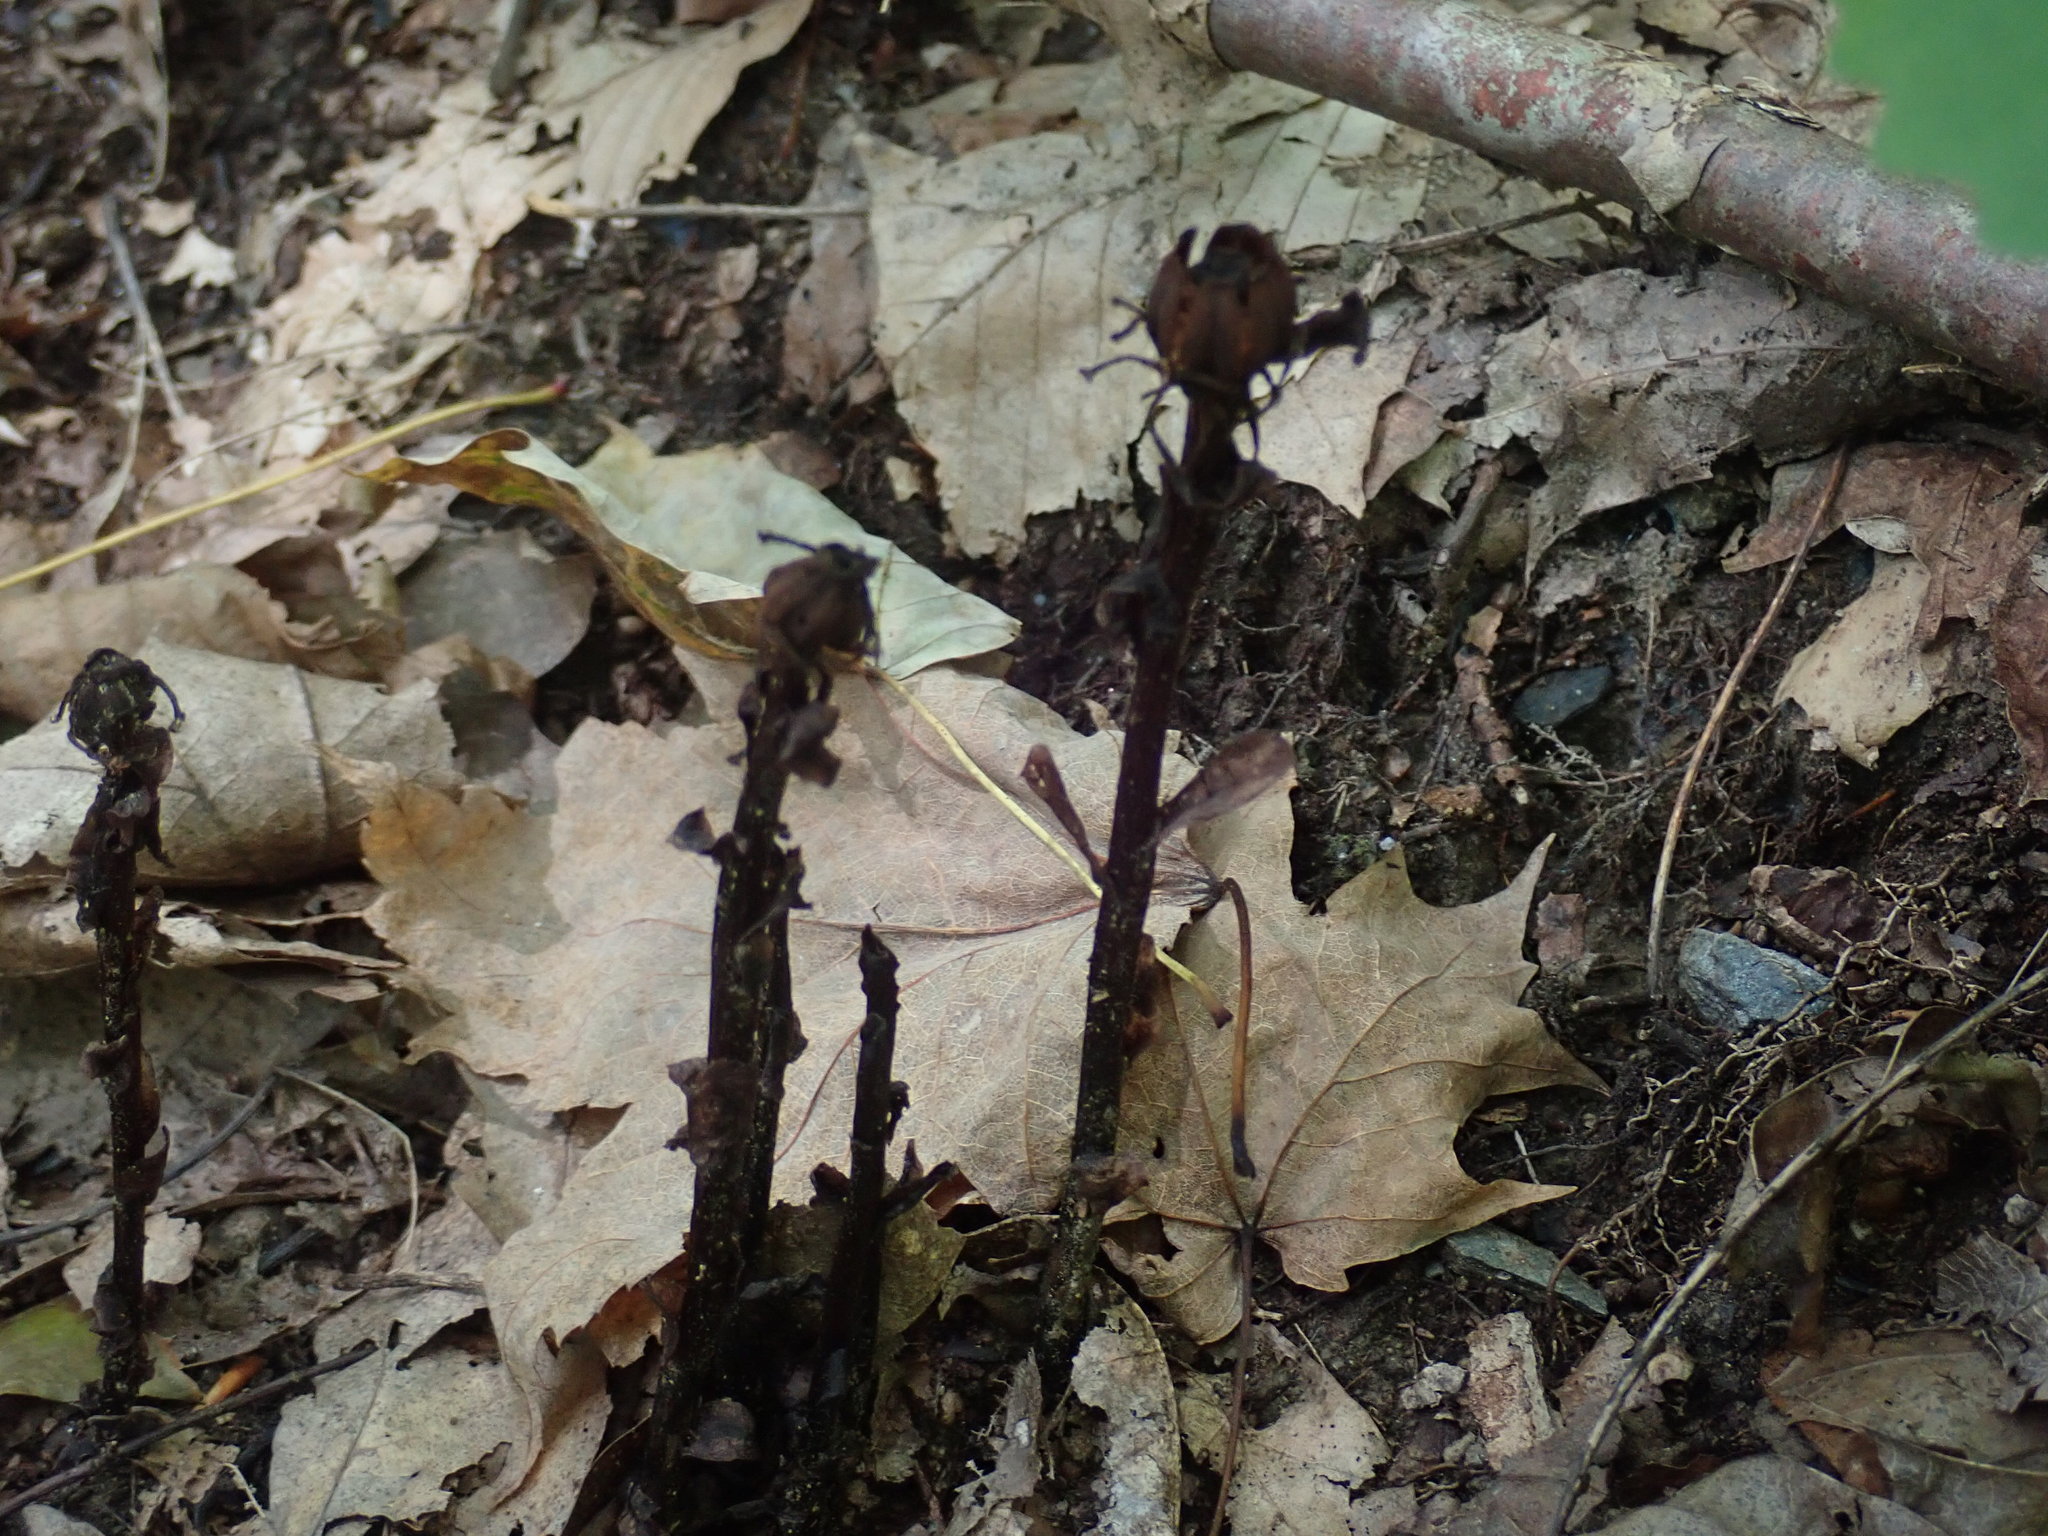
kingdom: Plantae
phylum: Tracheophyta
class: Magnoliopsida
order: Ericales
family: Ericaceae
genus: Monotropa
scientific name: Monotropa uniflora
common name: Convulsion root
